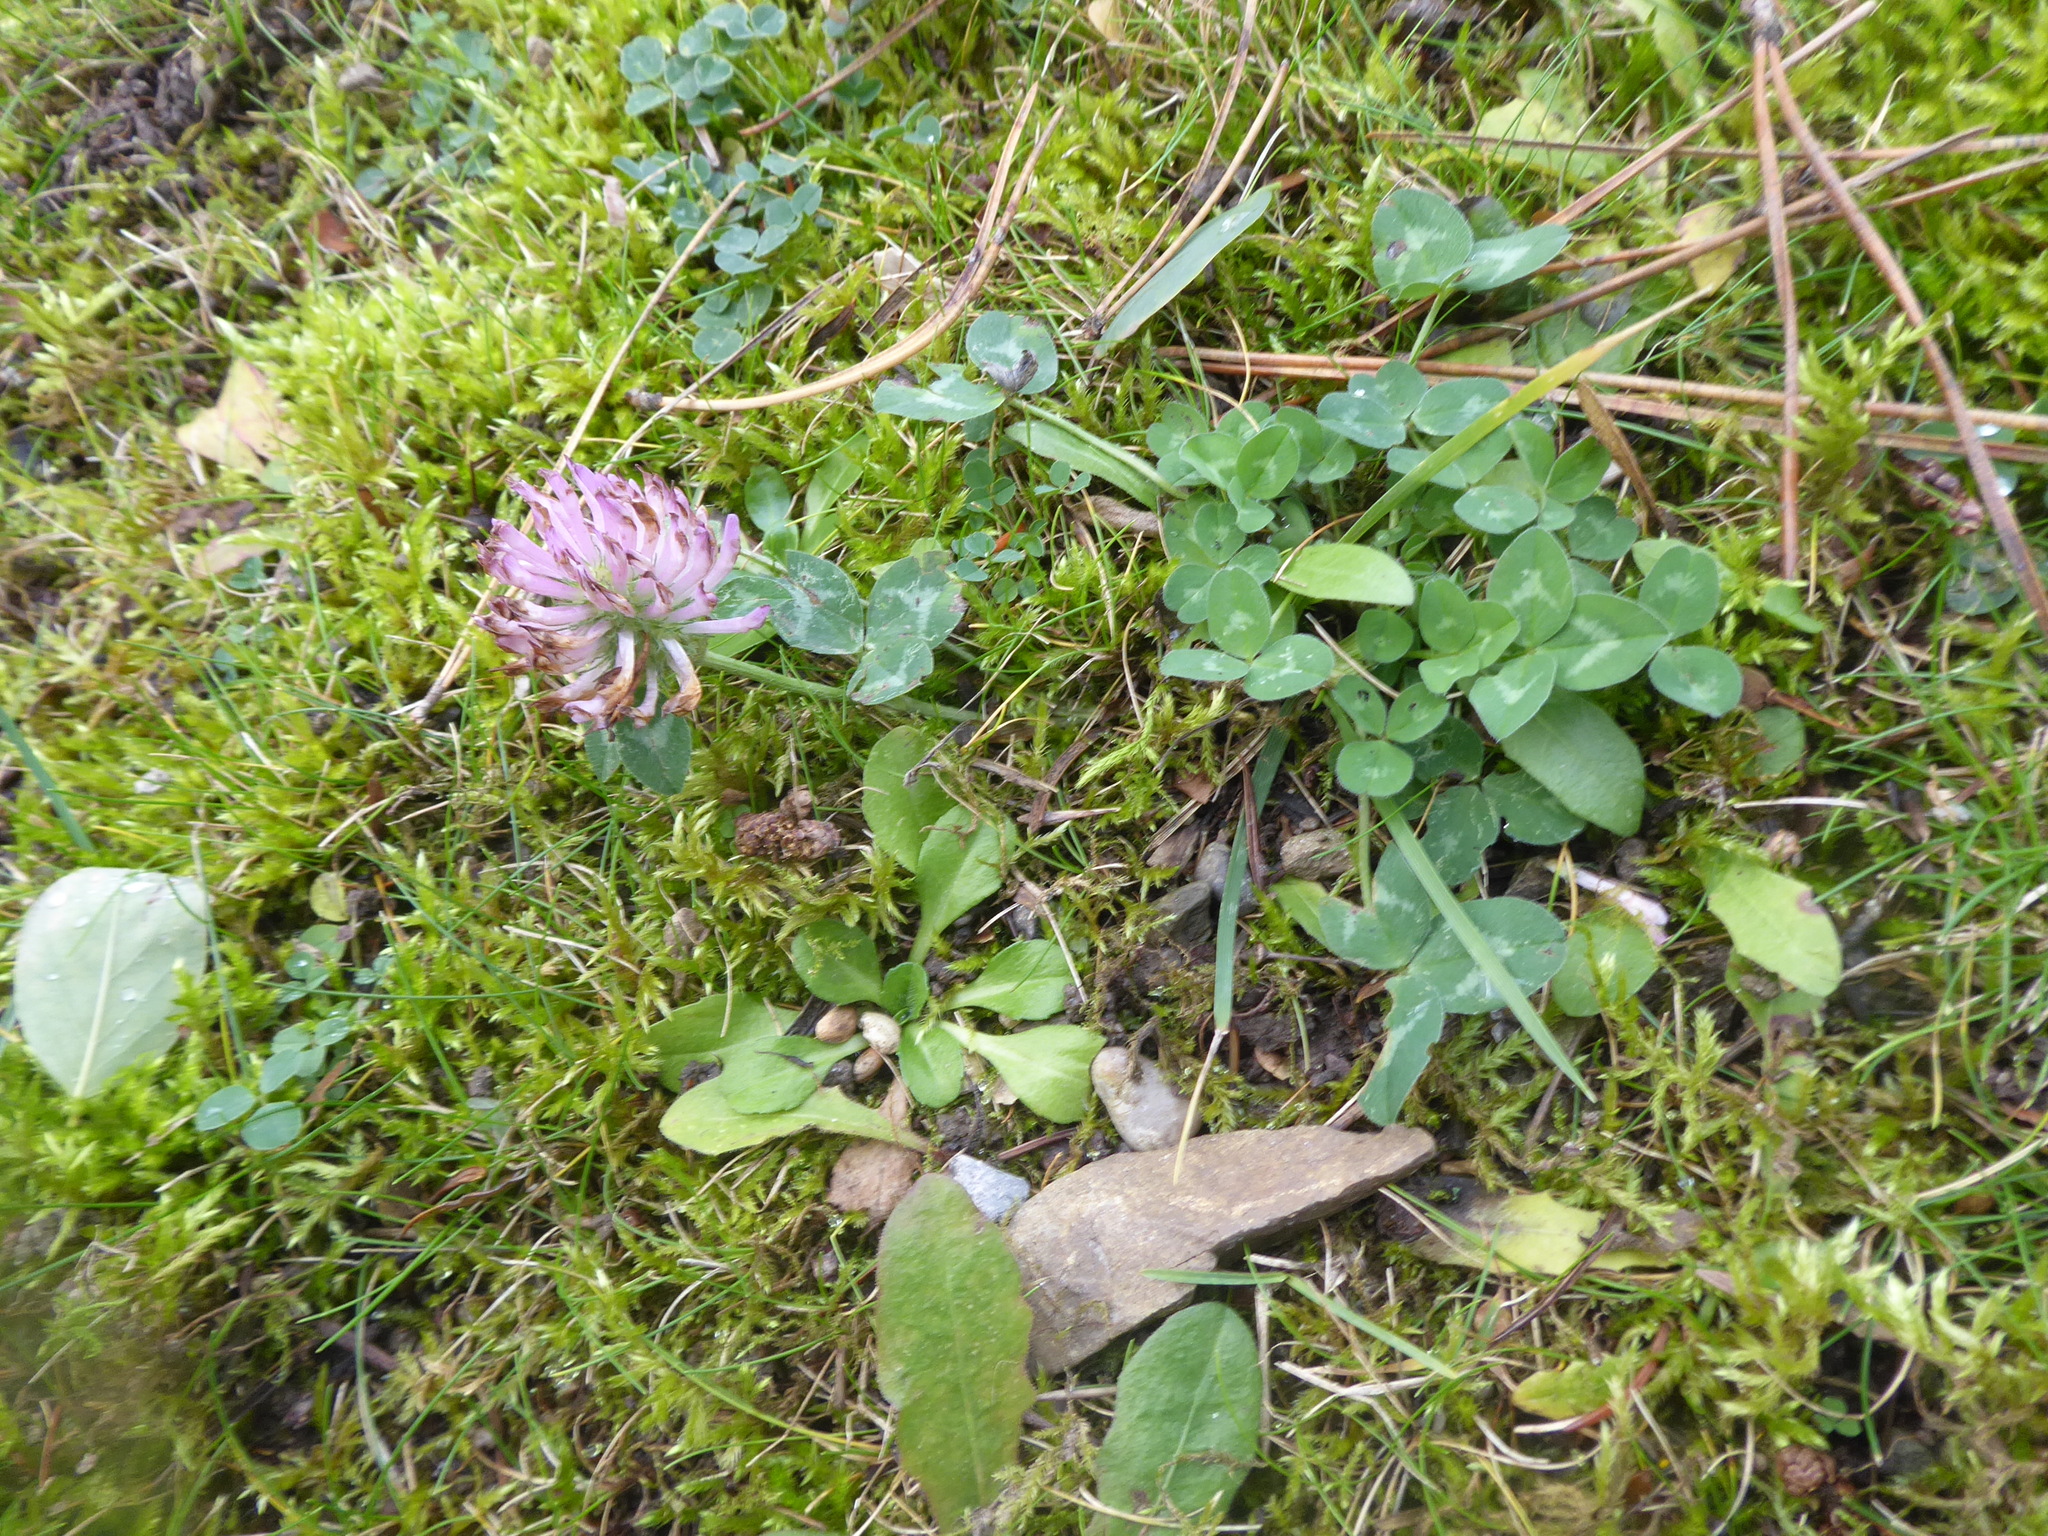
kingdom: Plantae
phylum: Tracheophyta
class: Magnoliopsida
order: Fabales
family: Fabaceae
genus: Trifolium
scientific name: Trifolium pratense
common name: Red clover
